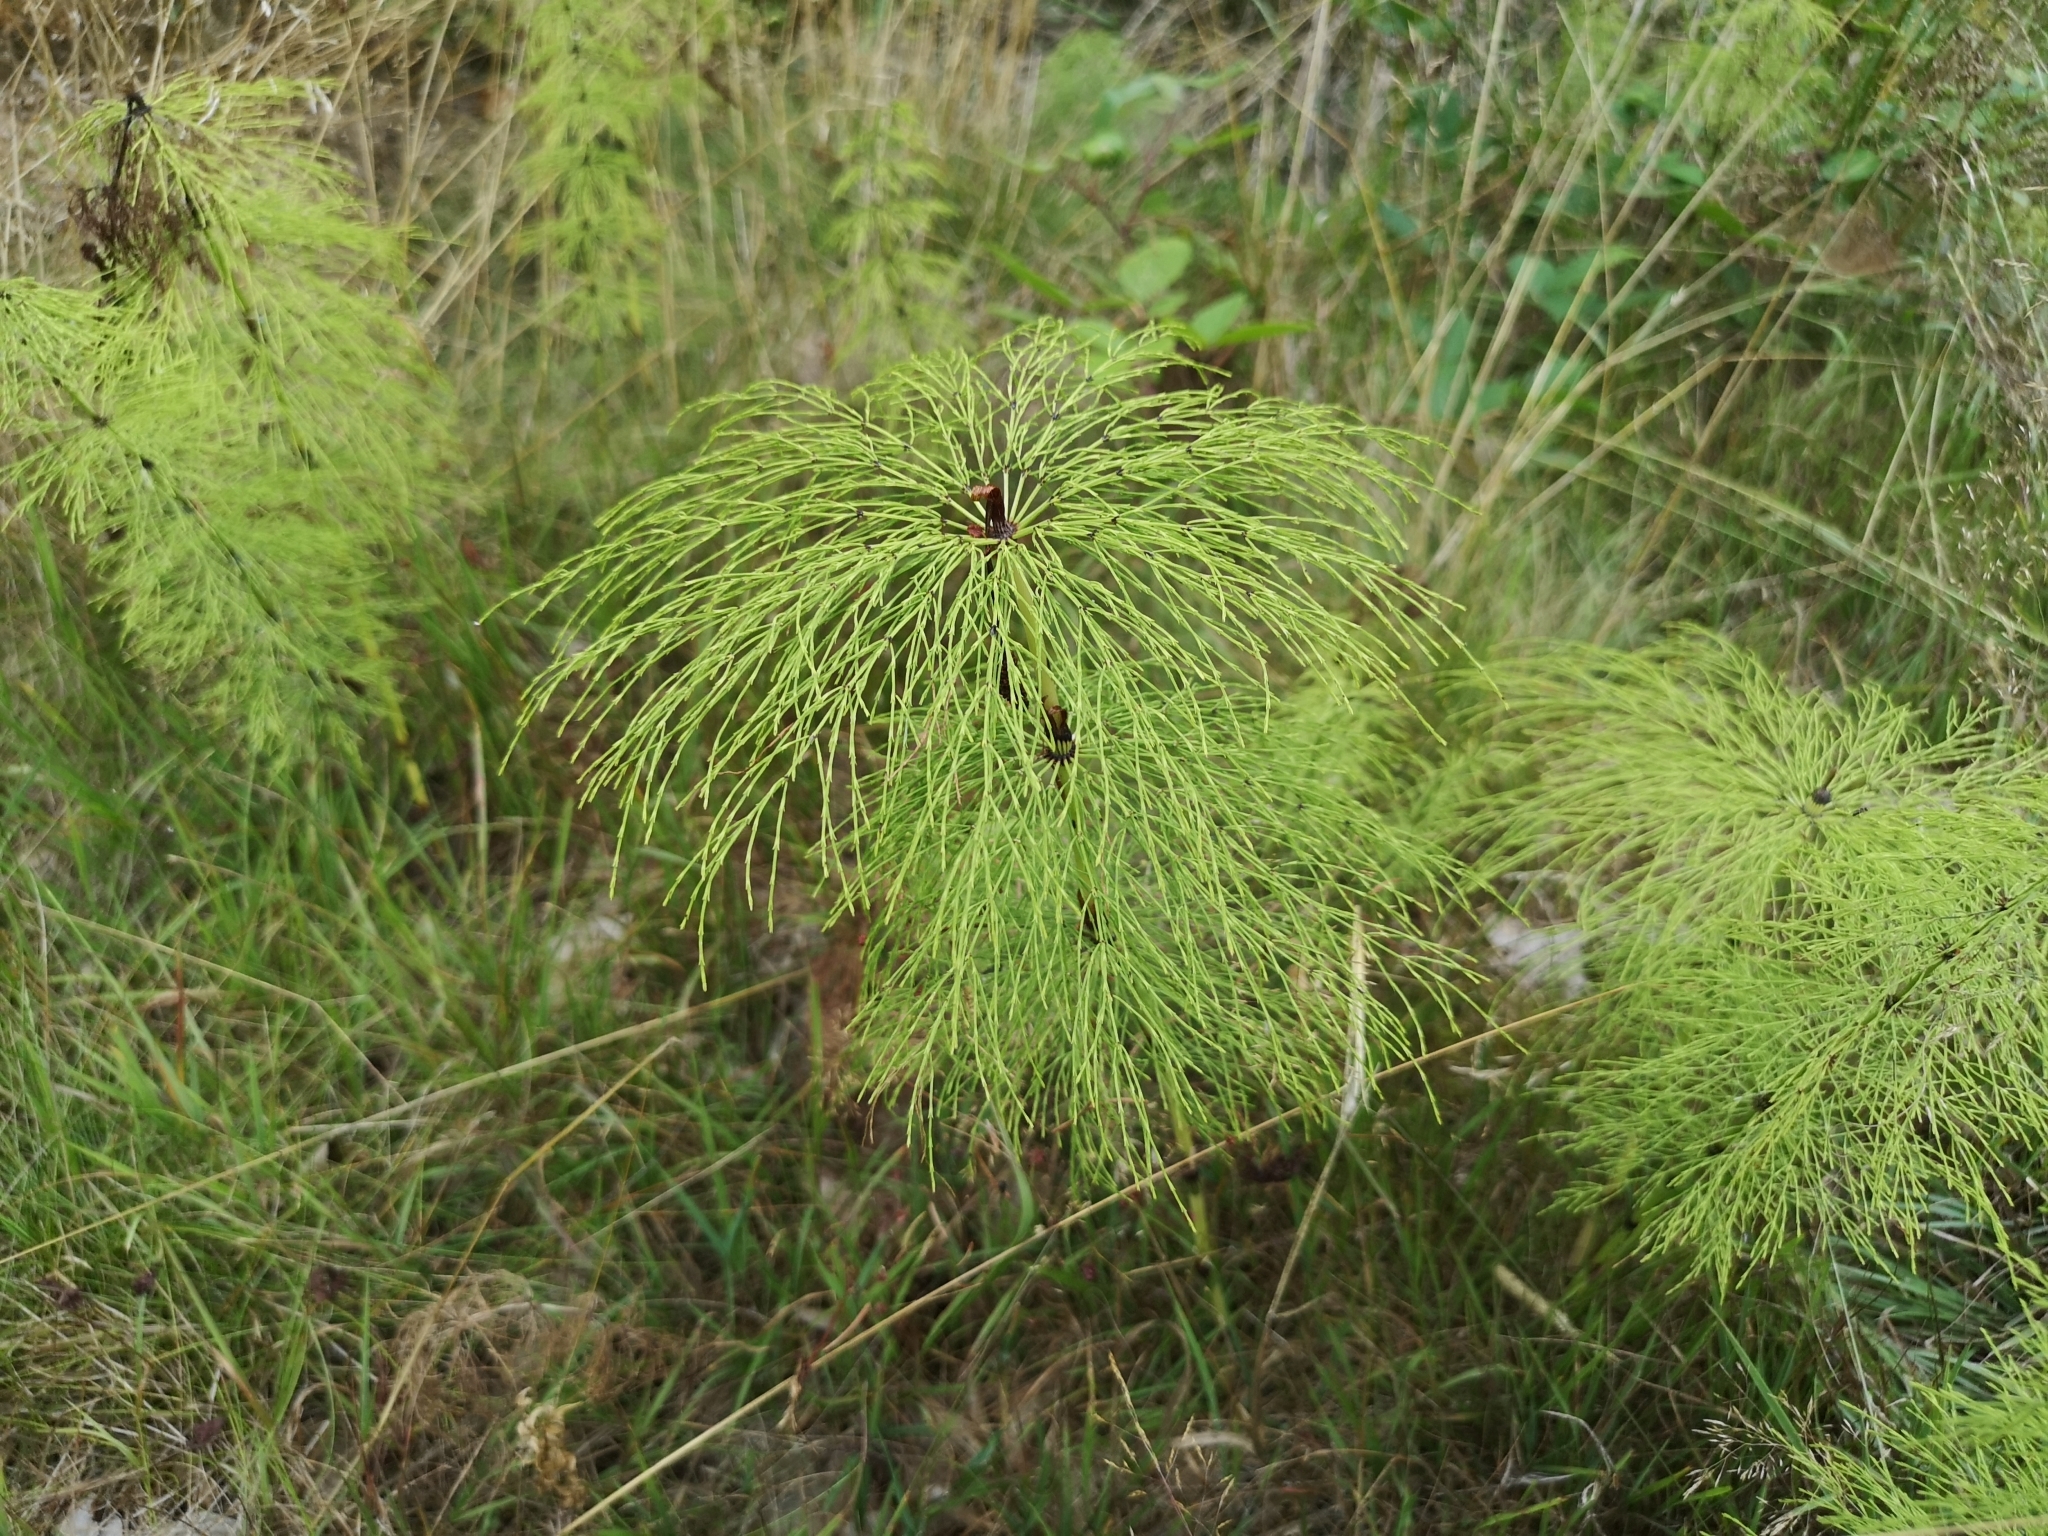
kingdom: Plantae
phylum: Tracheophyta
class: Polypodiopsida
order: Equisetales
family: Equisetaceae
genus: Equisetum
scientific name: Equisetum sylvaticum
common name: Wood horsetail
